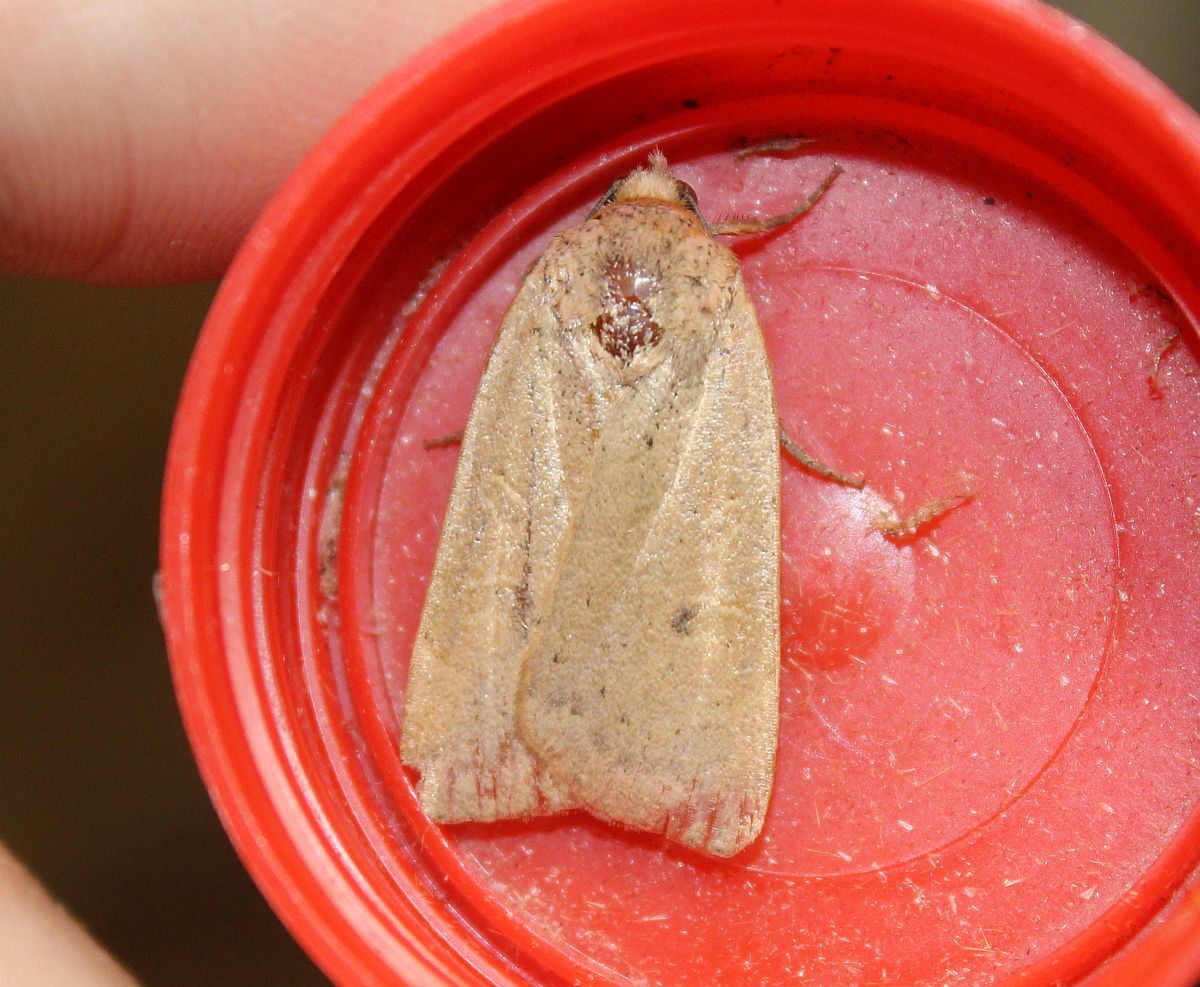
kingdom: Animalia
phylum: Arthropoda
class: Insecta
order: Lepidoptera
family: Noctuidae
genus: Noctua
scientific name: Noctua comes
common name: Lesser yellow underwing
